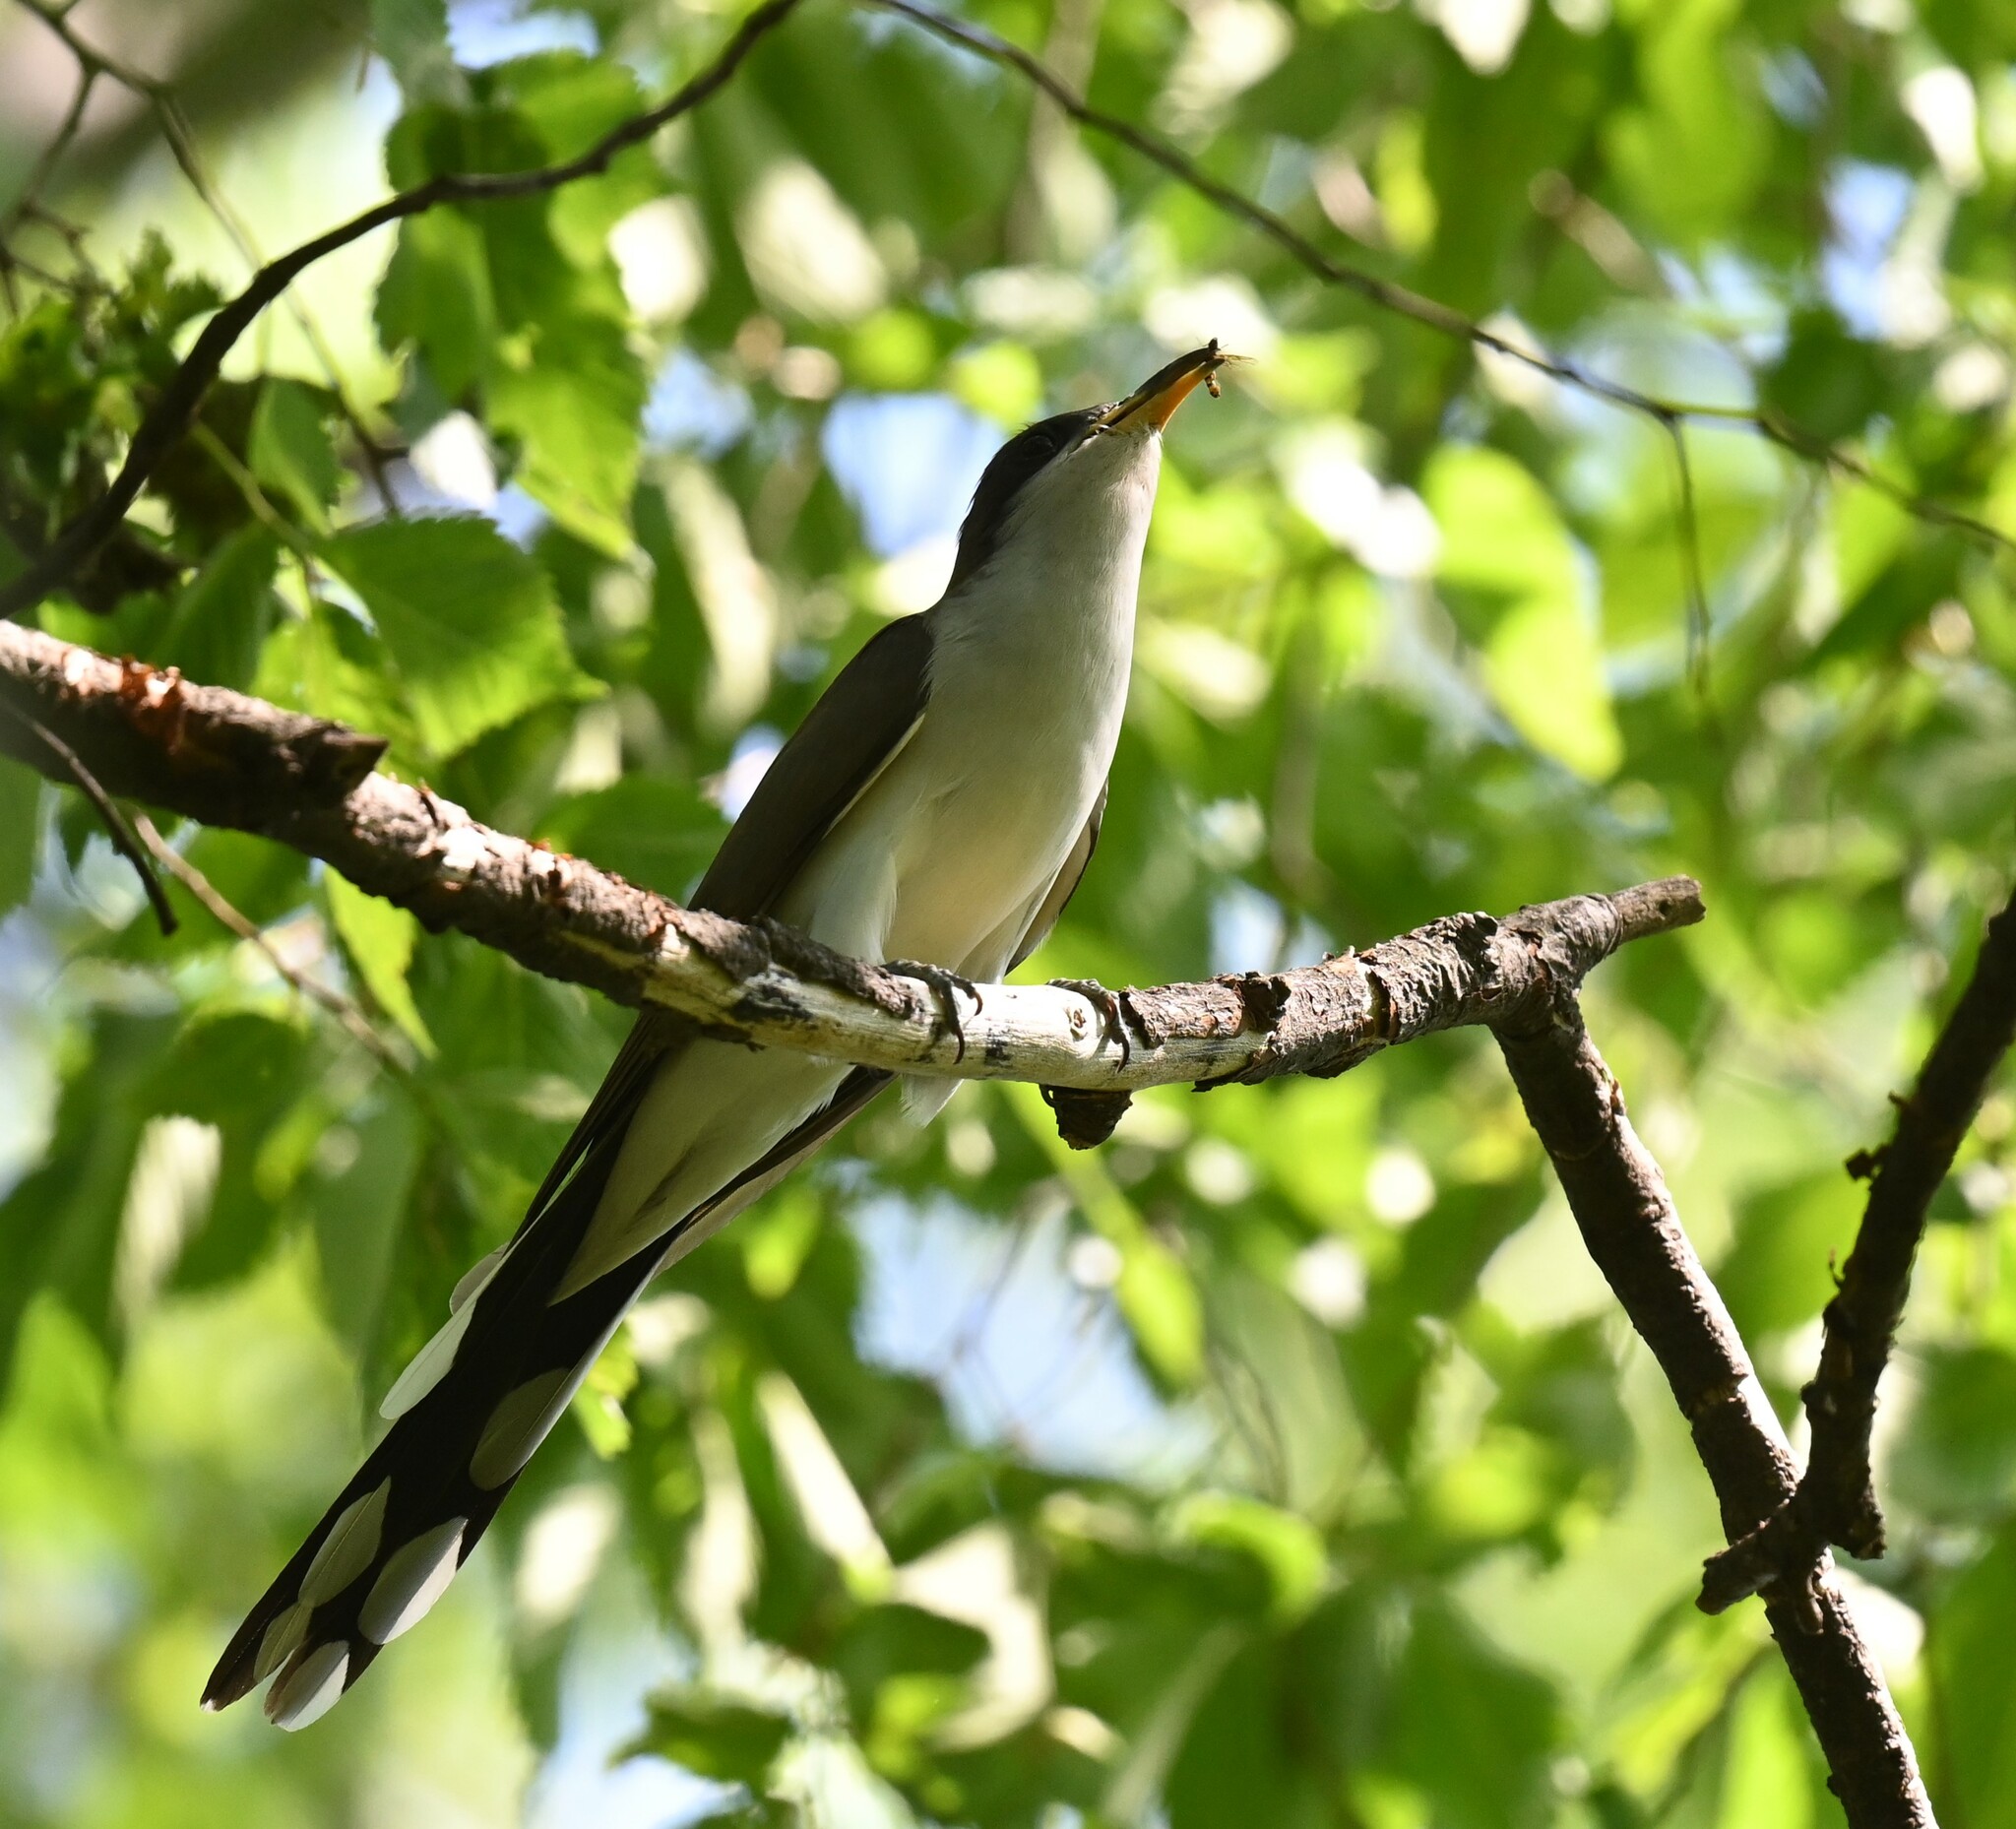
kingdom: Animalia
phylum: Chordata
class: Aves
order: Cuculiformes
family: Cuculidae
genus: Coccyzus
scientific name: Coccyzus americanus
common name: Yellow-billed cuckoo
